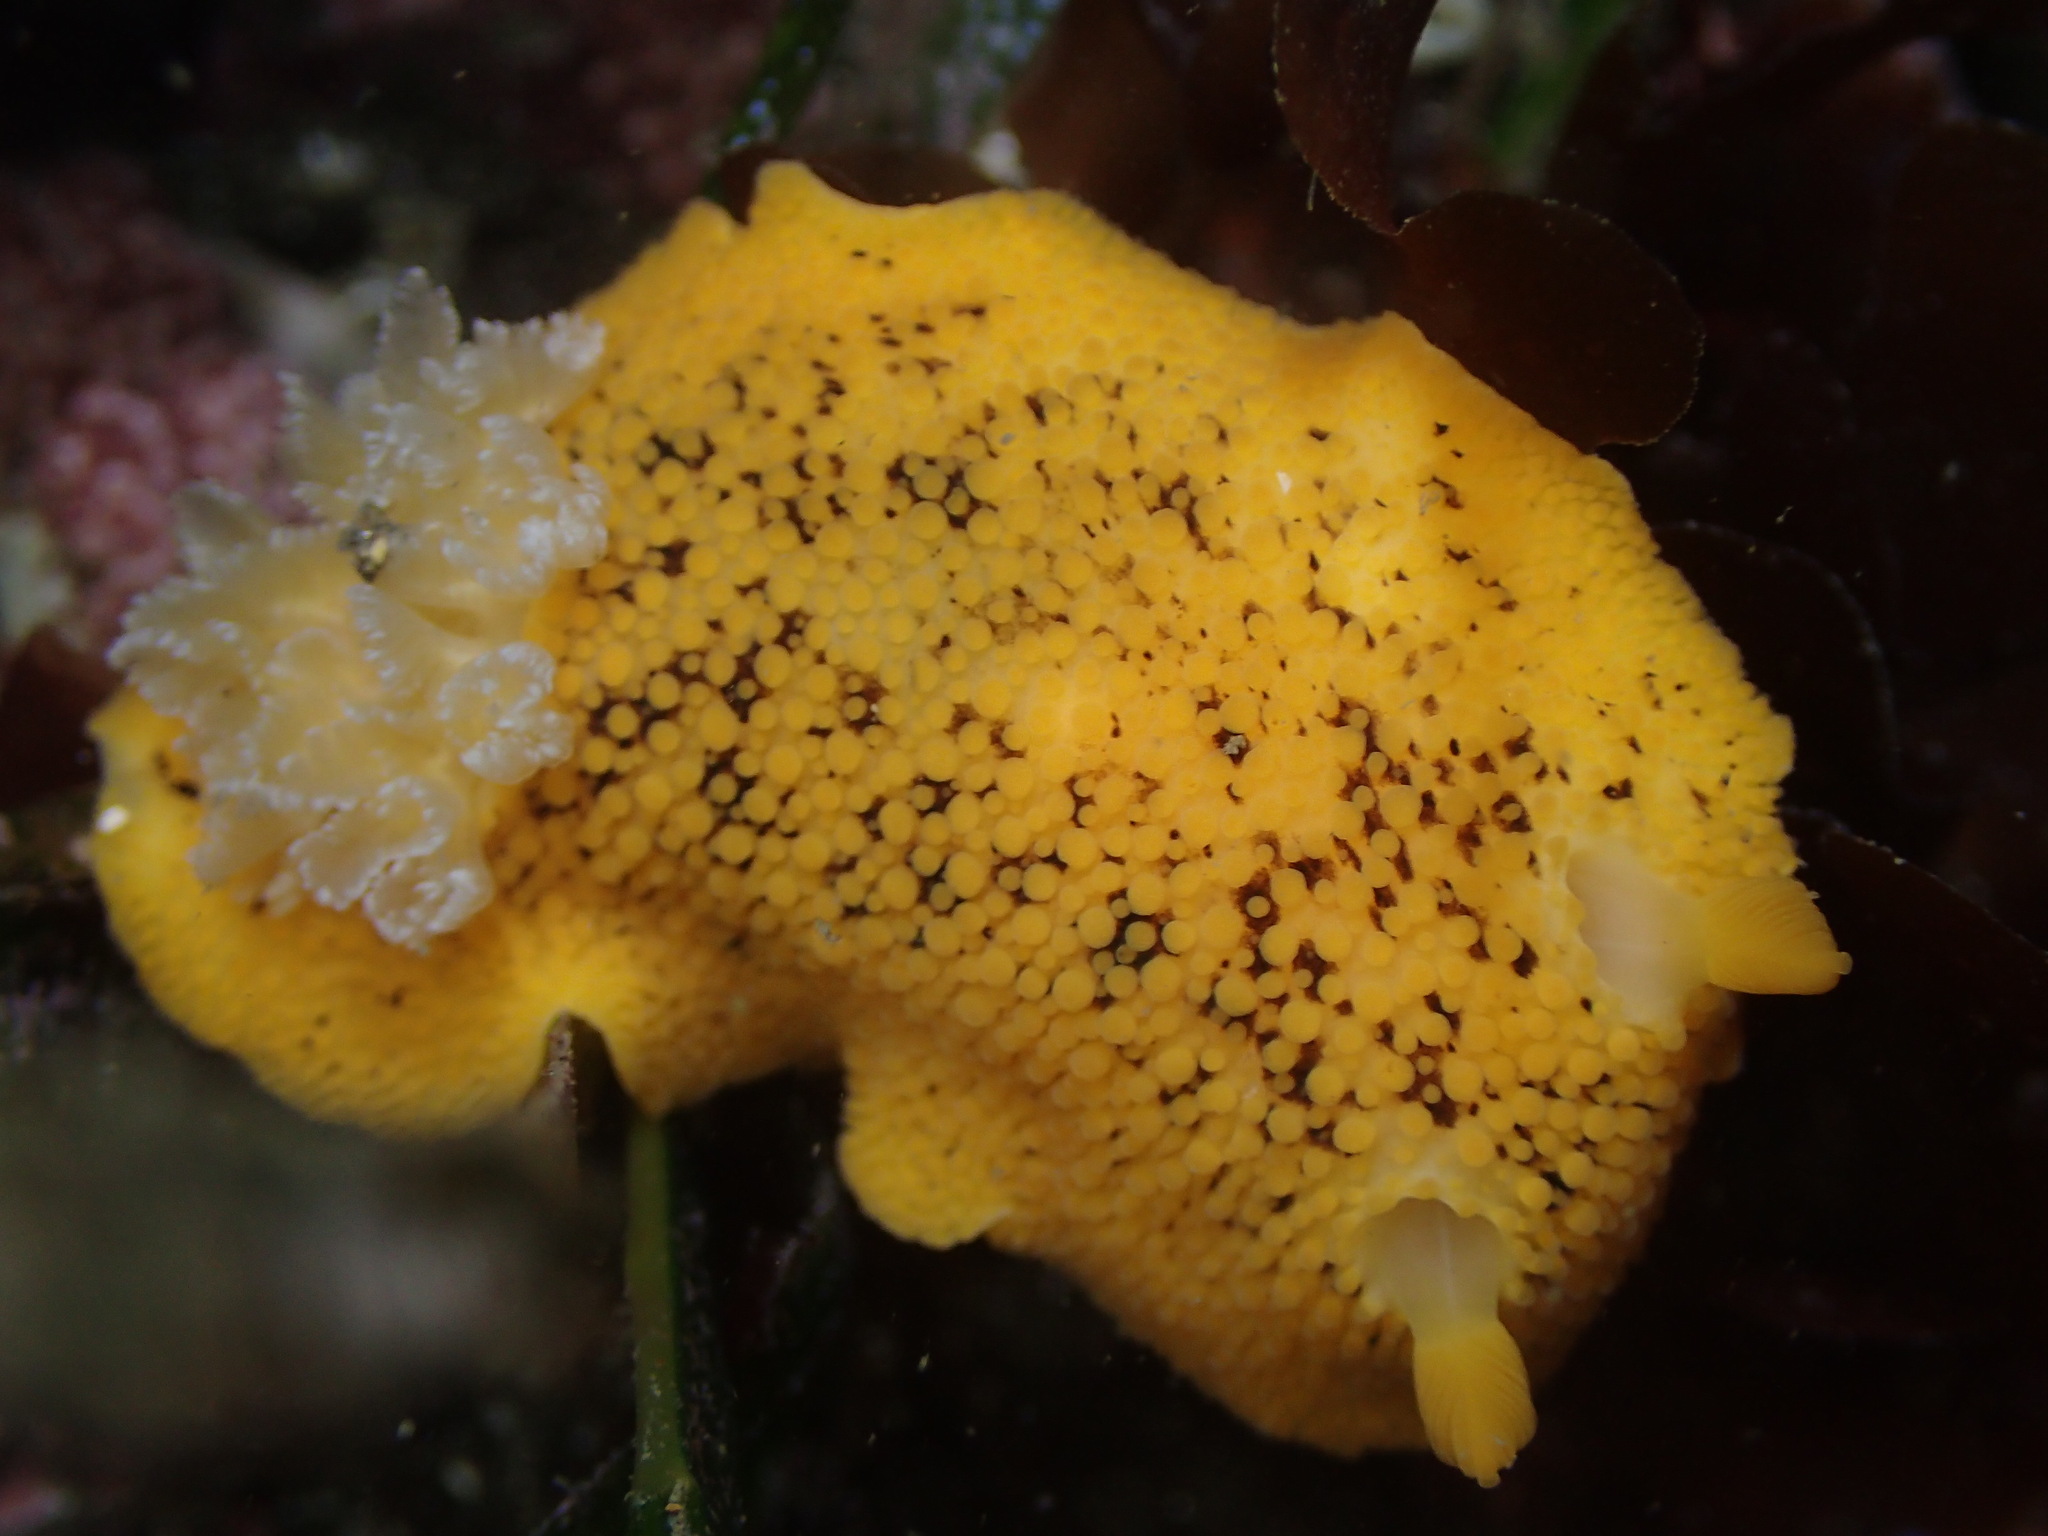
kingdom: Animalia
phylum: Mollusca
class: Gastropoda
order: Nudibranchia
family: Discodorididae
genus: Peltodoris
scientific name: Peltodoris nobilis
